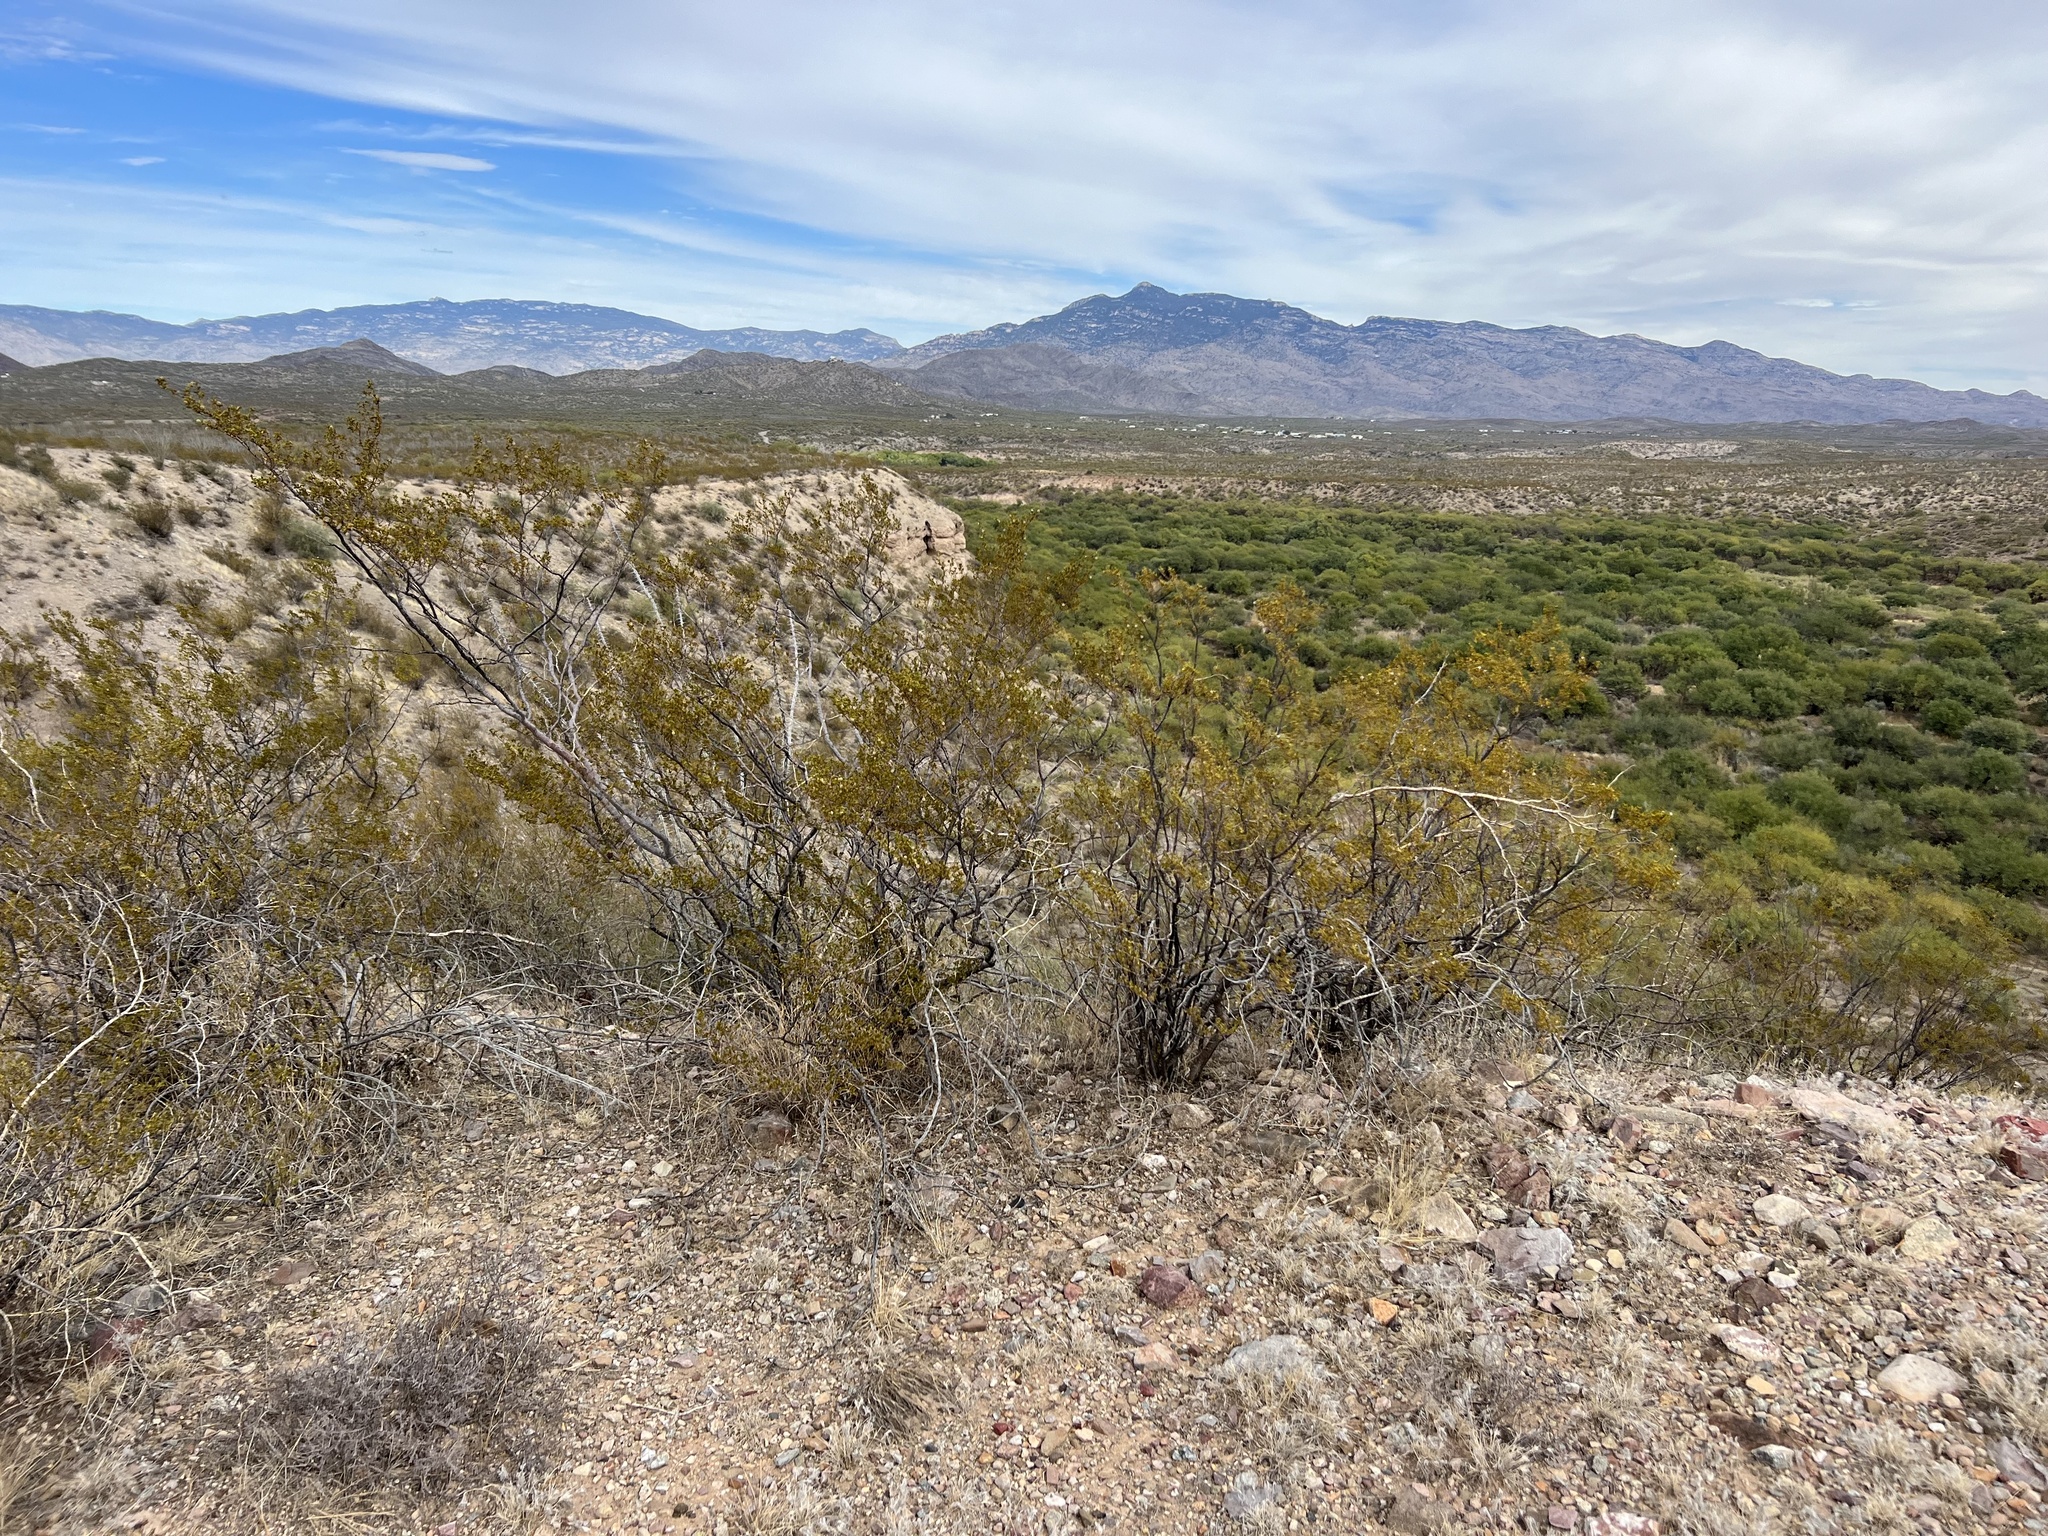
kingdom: Plantae
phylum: Tracheophyta
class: Magnoliopsida
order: Zygophyllales
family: Zygophyllaceae
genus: Larrea
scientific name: Larrea tridentata
